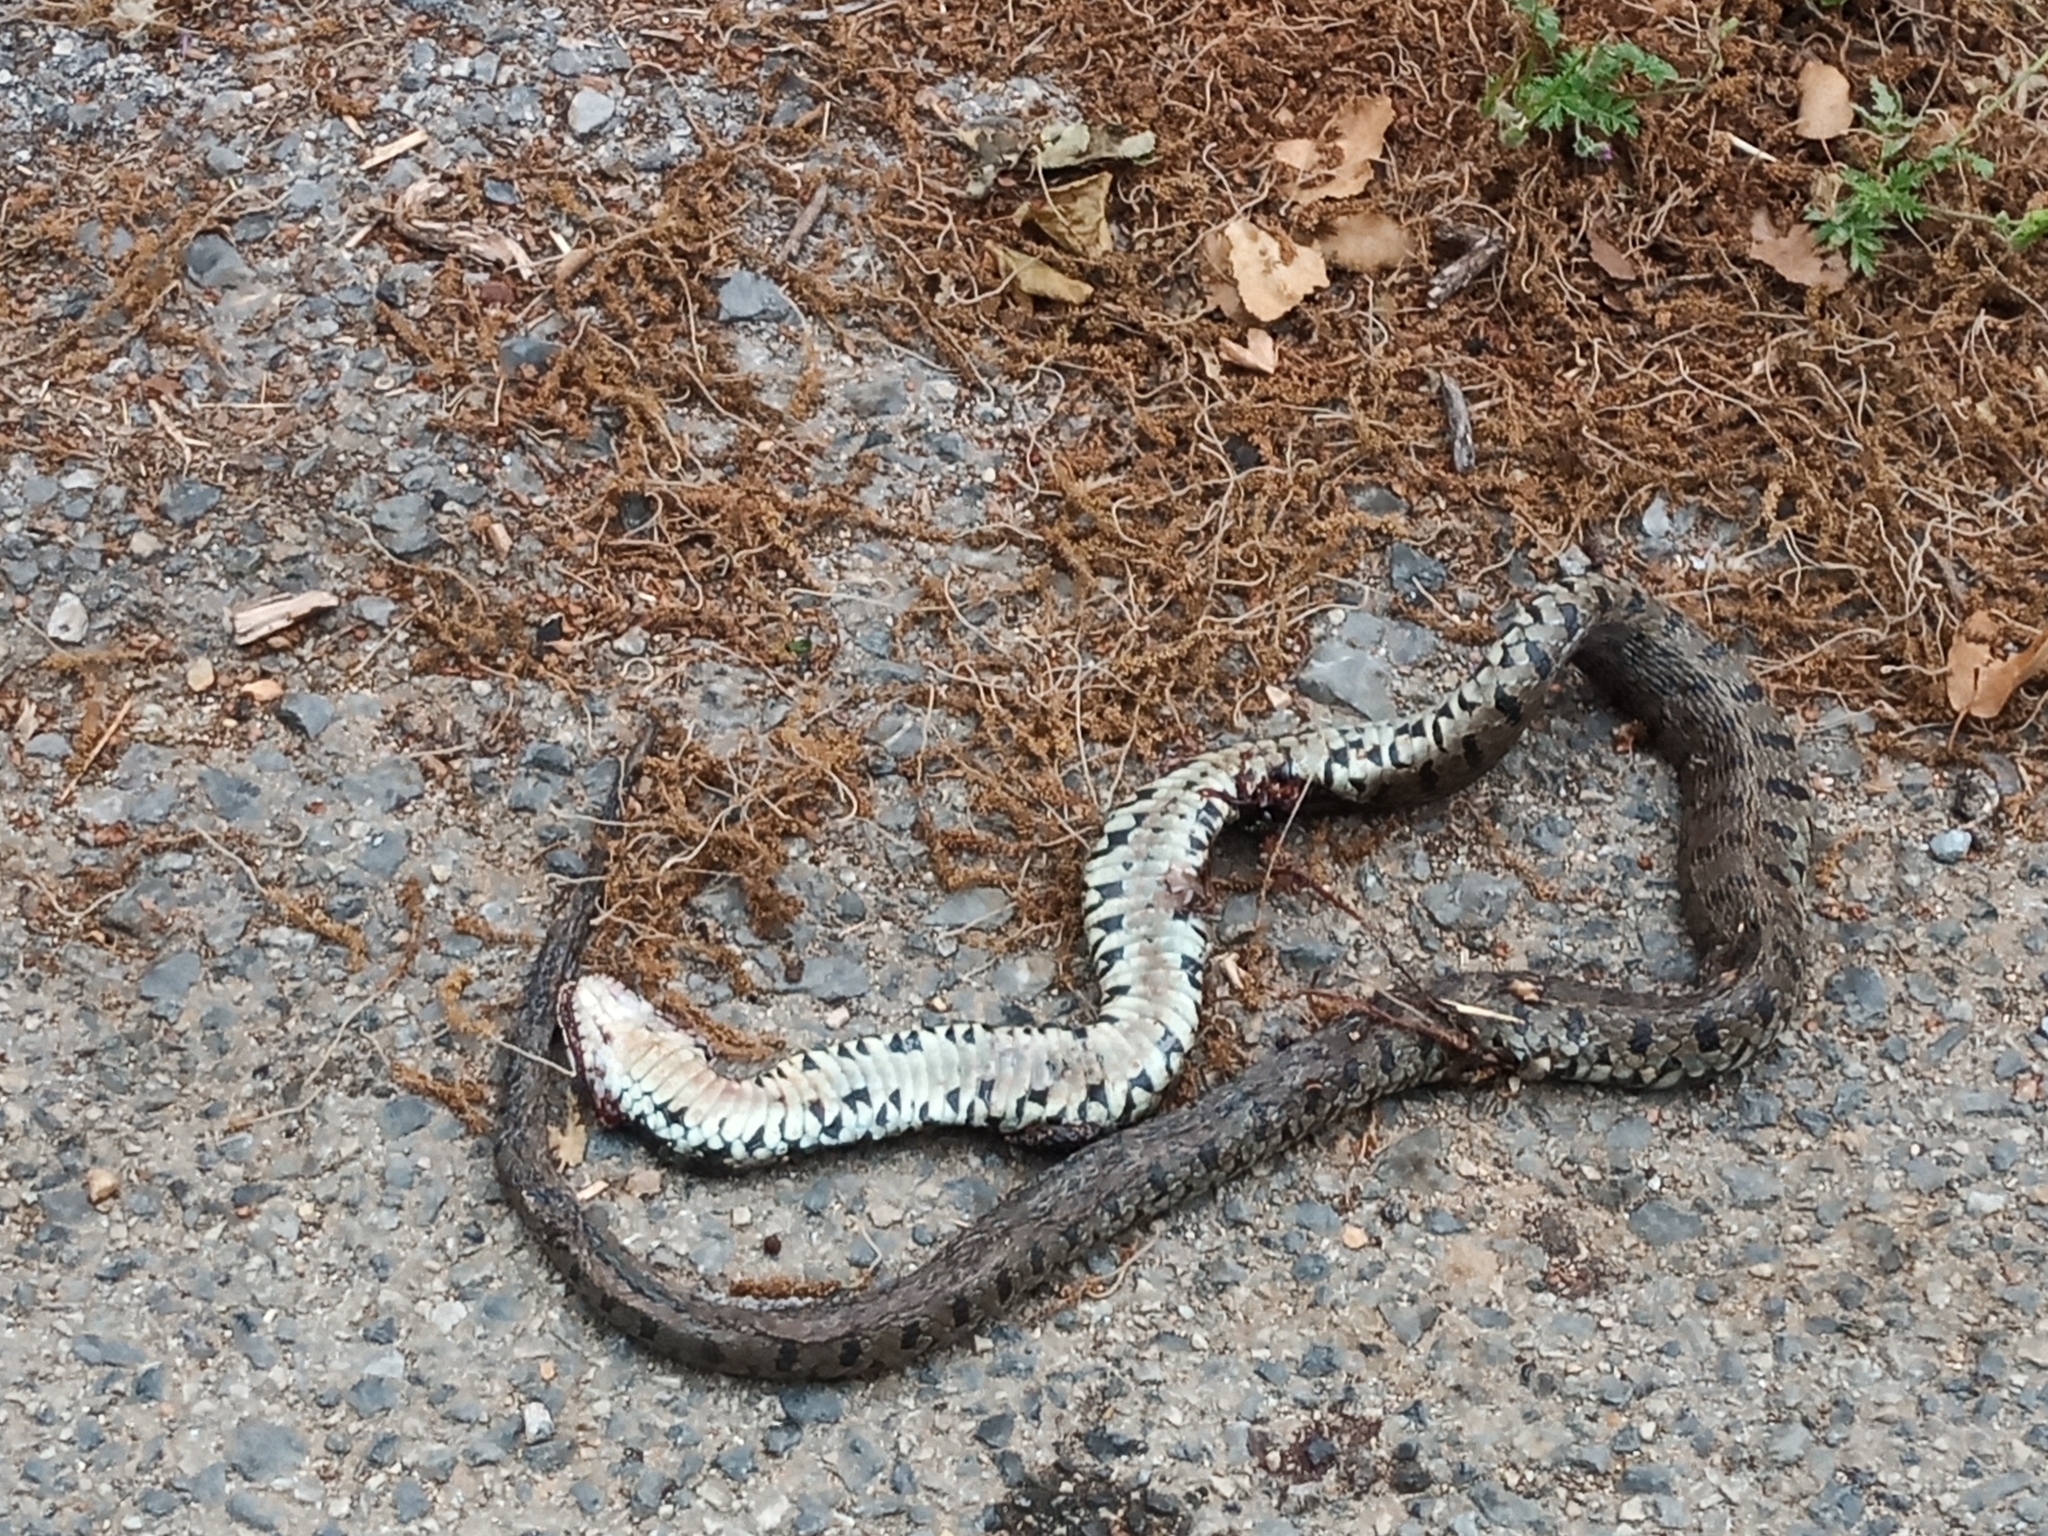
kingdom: Animalia
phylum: Chordata
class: Squamata
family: Colubridae
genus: Natrix
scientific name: Natrix natrix
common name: Grass snake
